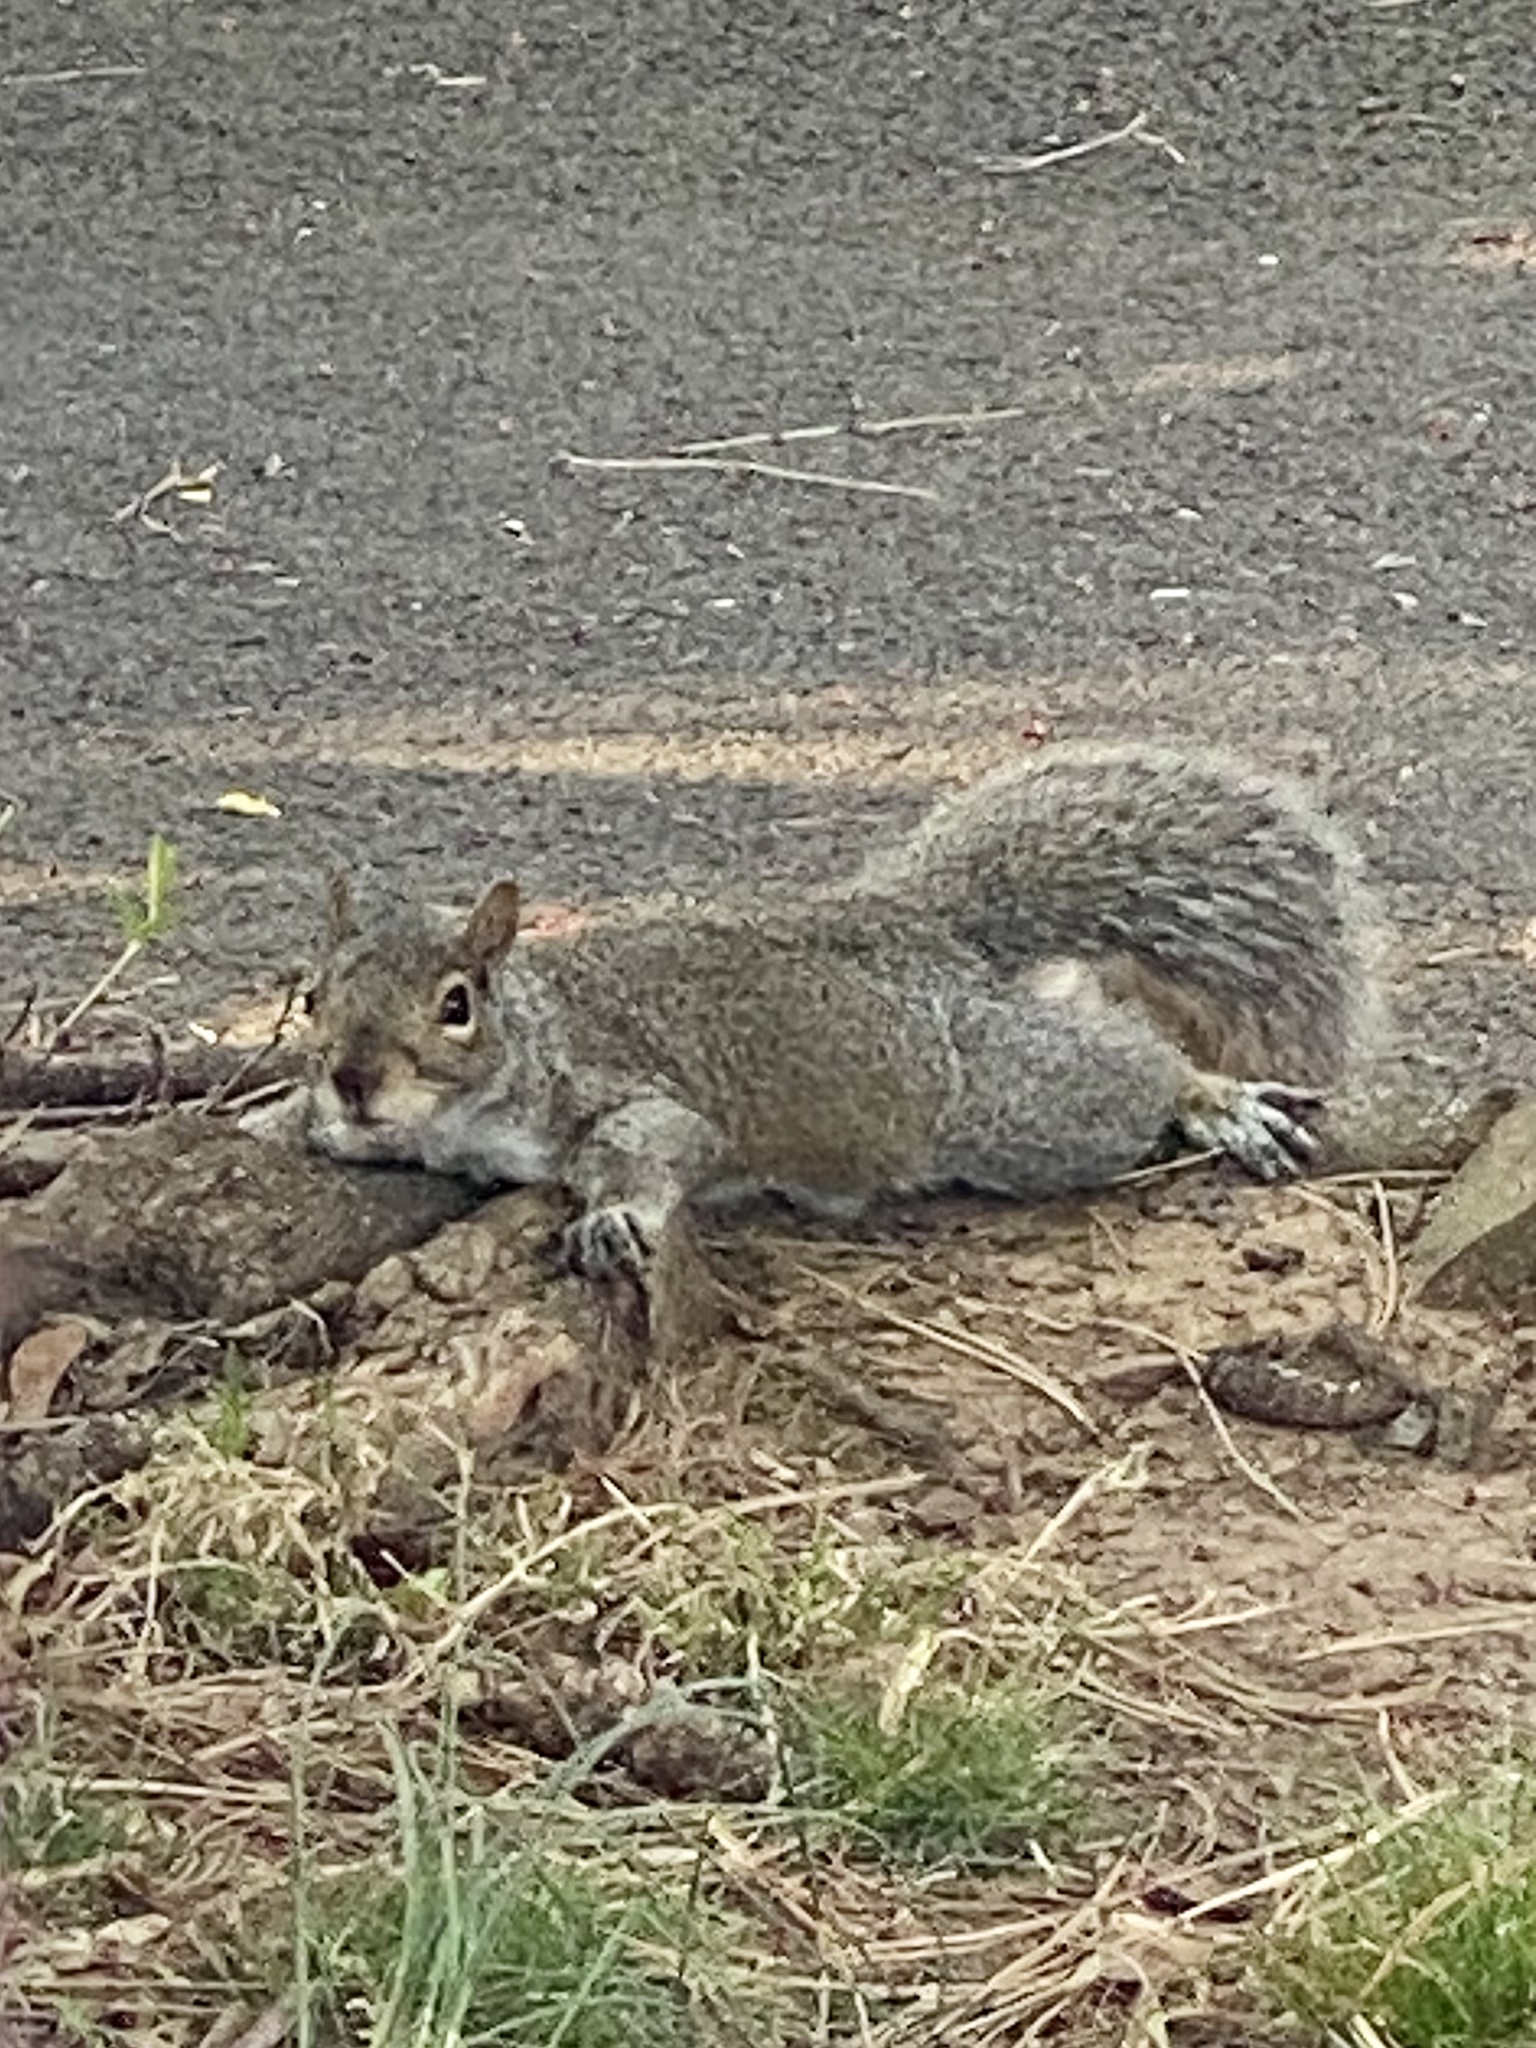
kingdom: Animalia
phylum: Chordata
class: Mammalia
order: Rodentia
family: Sciuridae
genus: Sciurus
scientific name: Sciurus carolinensis
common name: Eastern gray squirrel
